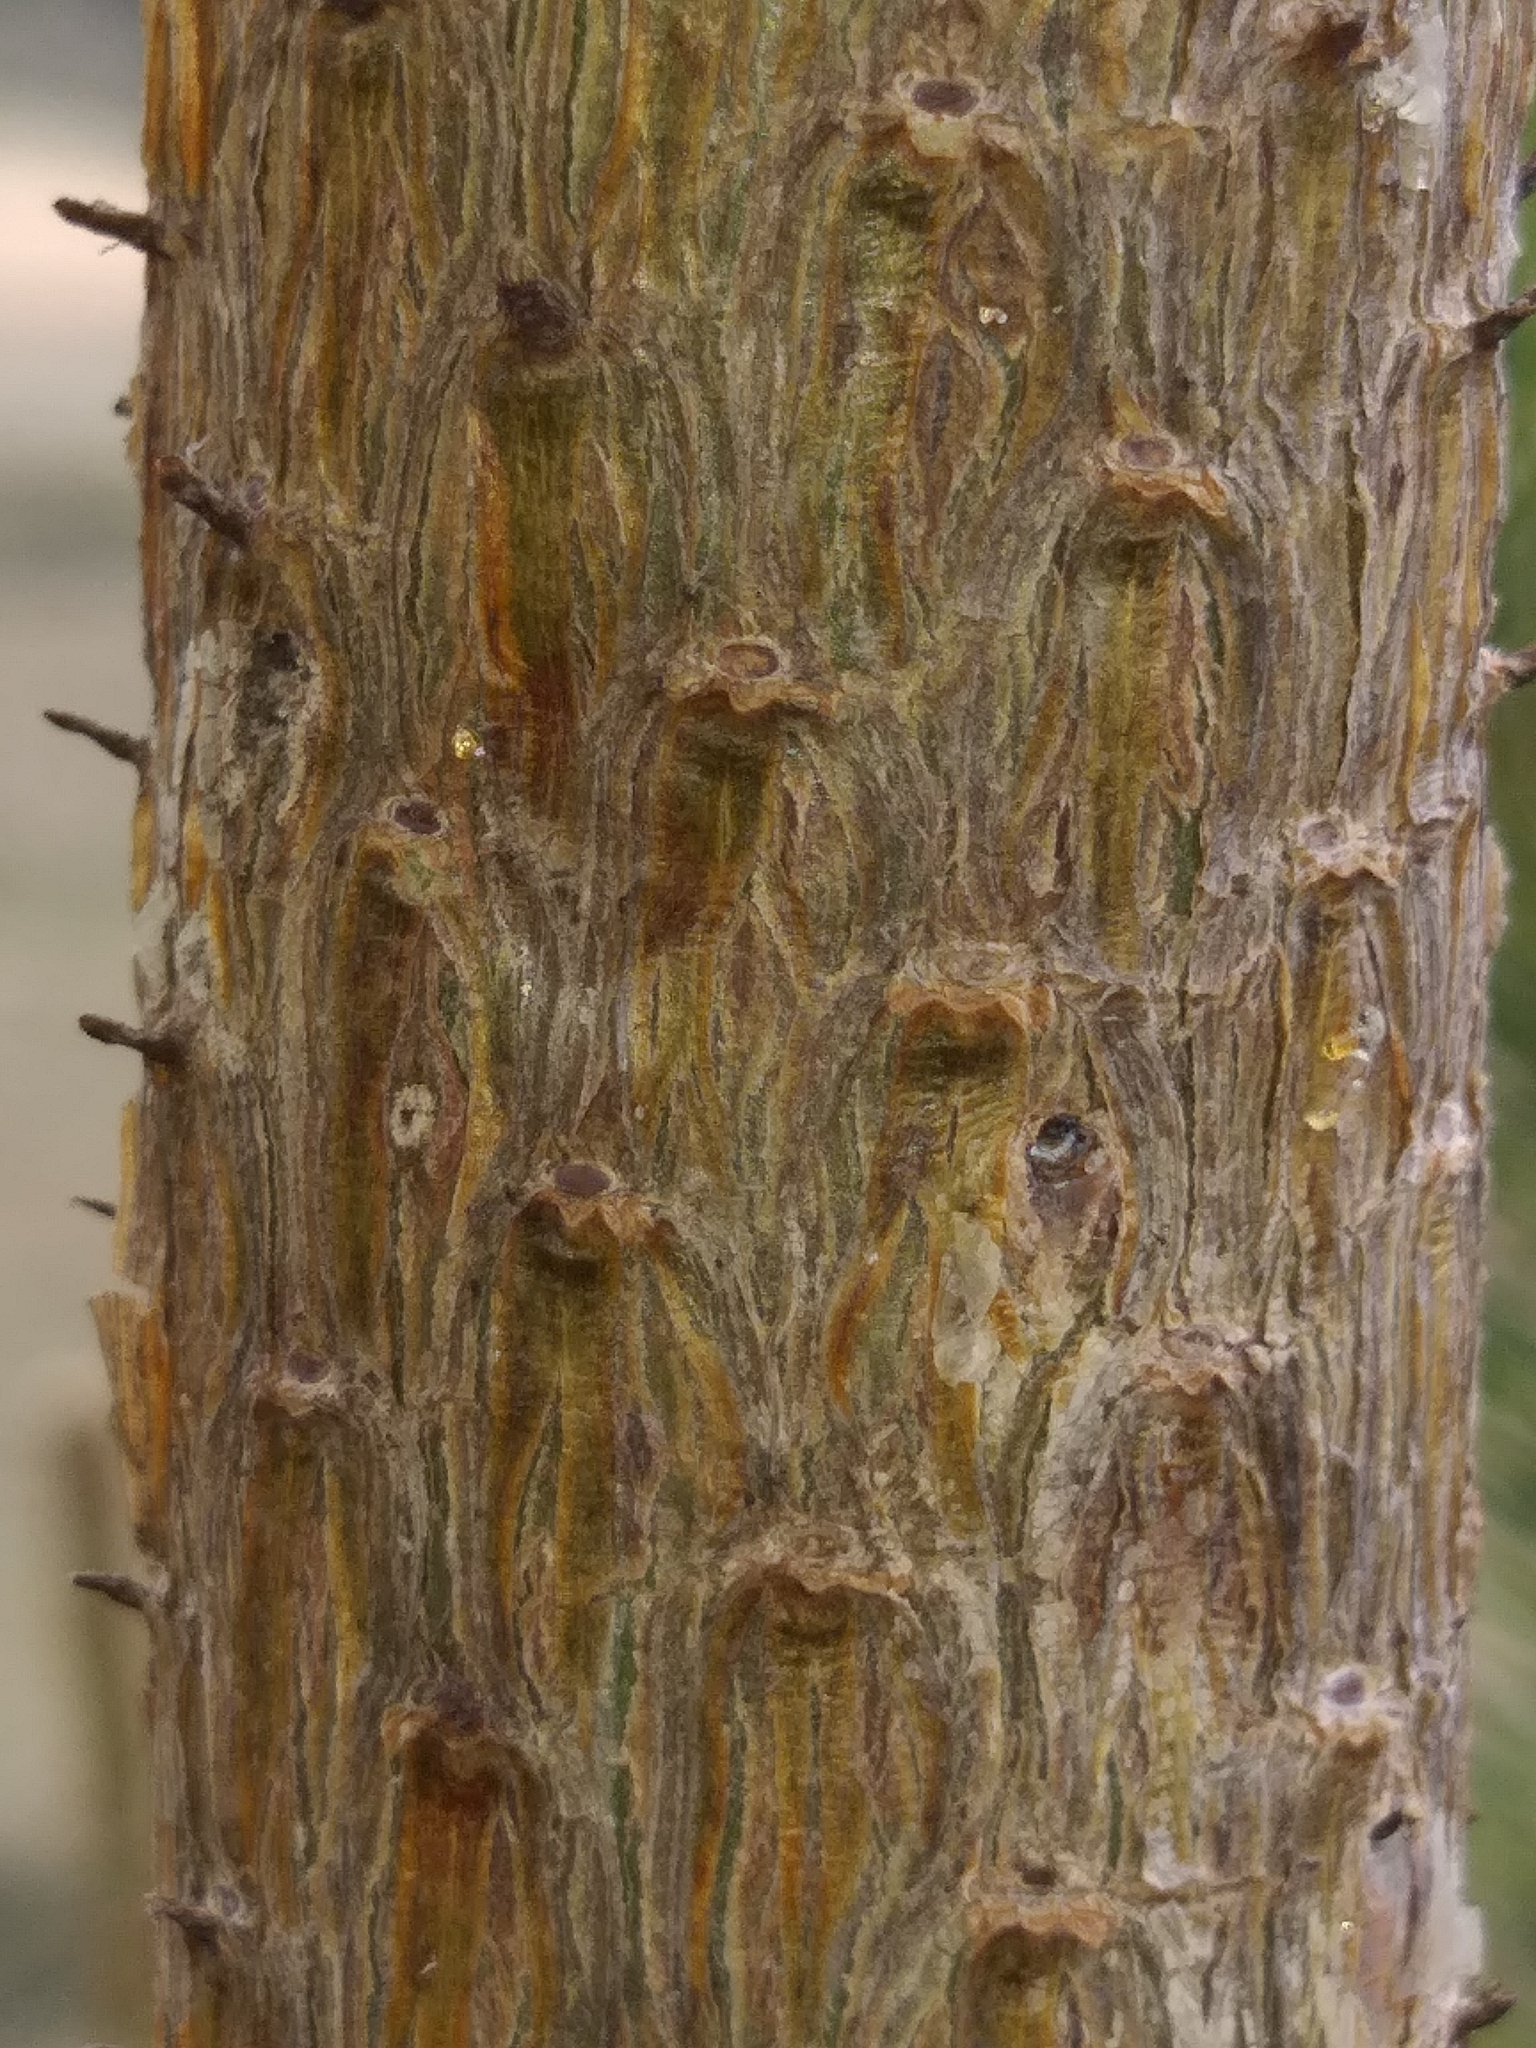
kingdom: Plantae
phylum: Tracheophyta
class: Pinopsida
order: Pinales
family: Pinaceae
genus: Pinus
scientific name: Pinus contorta
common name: Lodgepole pine
